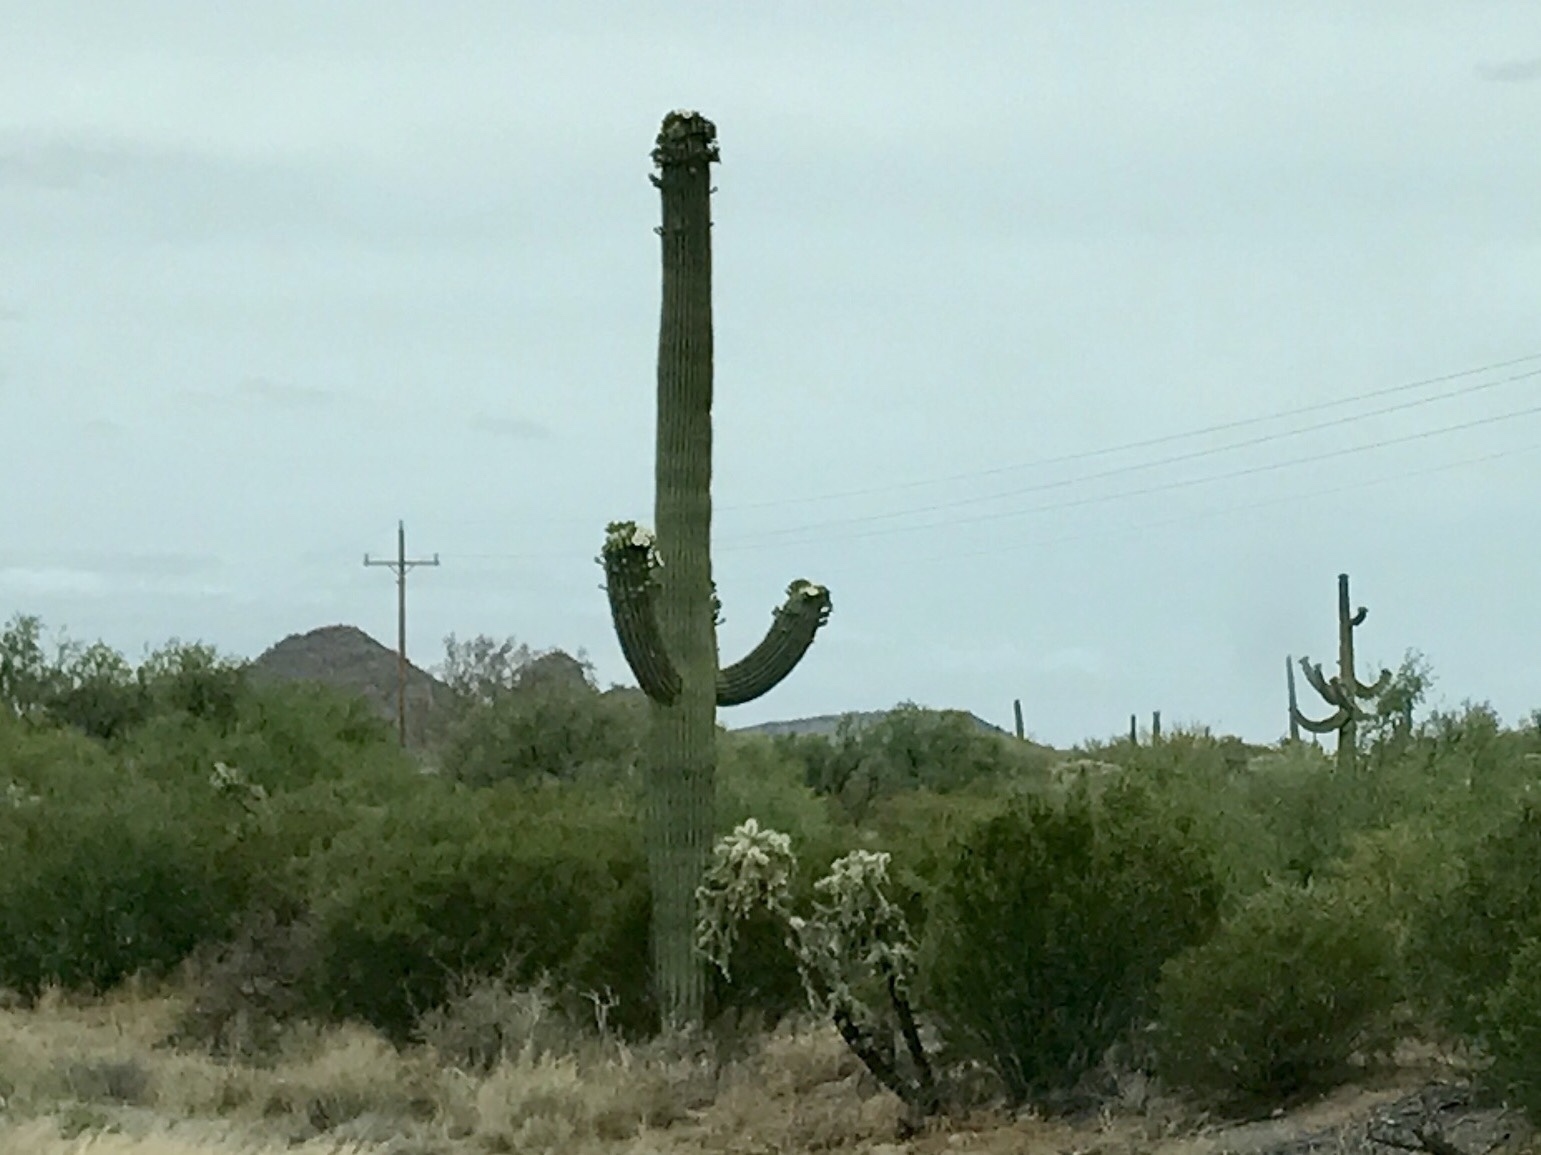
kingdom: Plantae
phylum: Tracheophyta
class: Magnoliopsida
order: Caryophyllales
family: Cactaceae
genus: Carnegiea
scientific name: Carnegiea gigantea
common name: Saguaro
